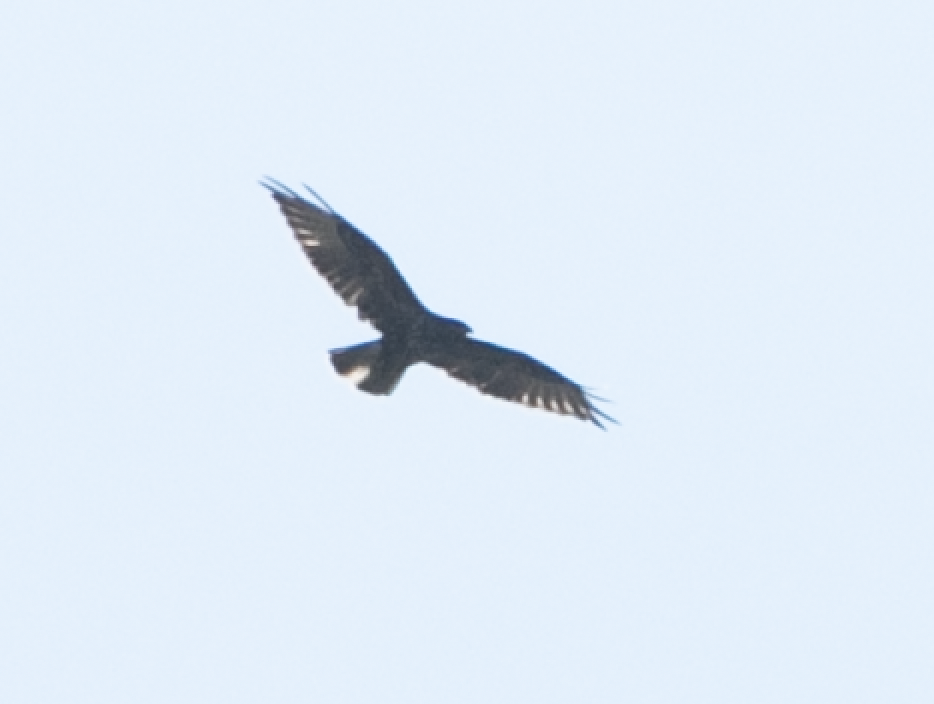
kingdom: Animalia
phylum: Chordata
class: Aves
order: Accipitriformes
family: Accipitridae
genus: Buteo
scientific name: Buteo buteo
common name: Common buzzard
